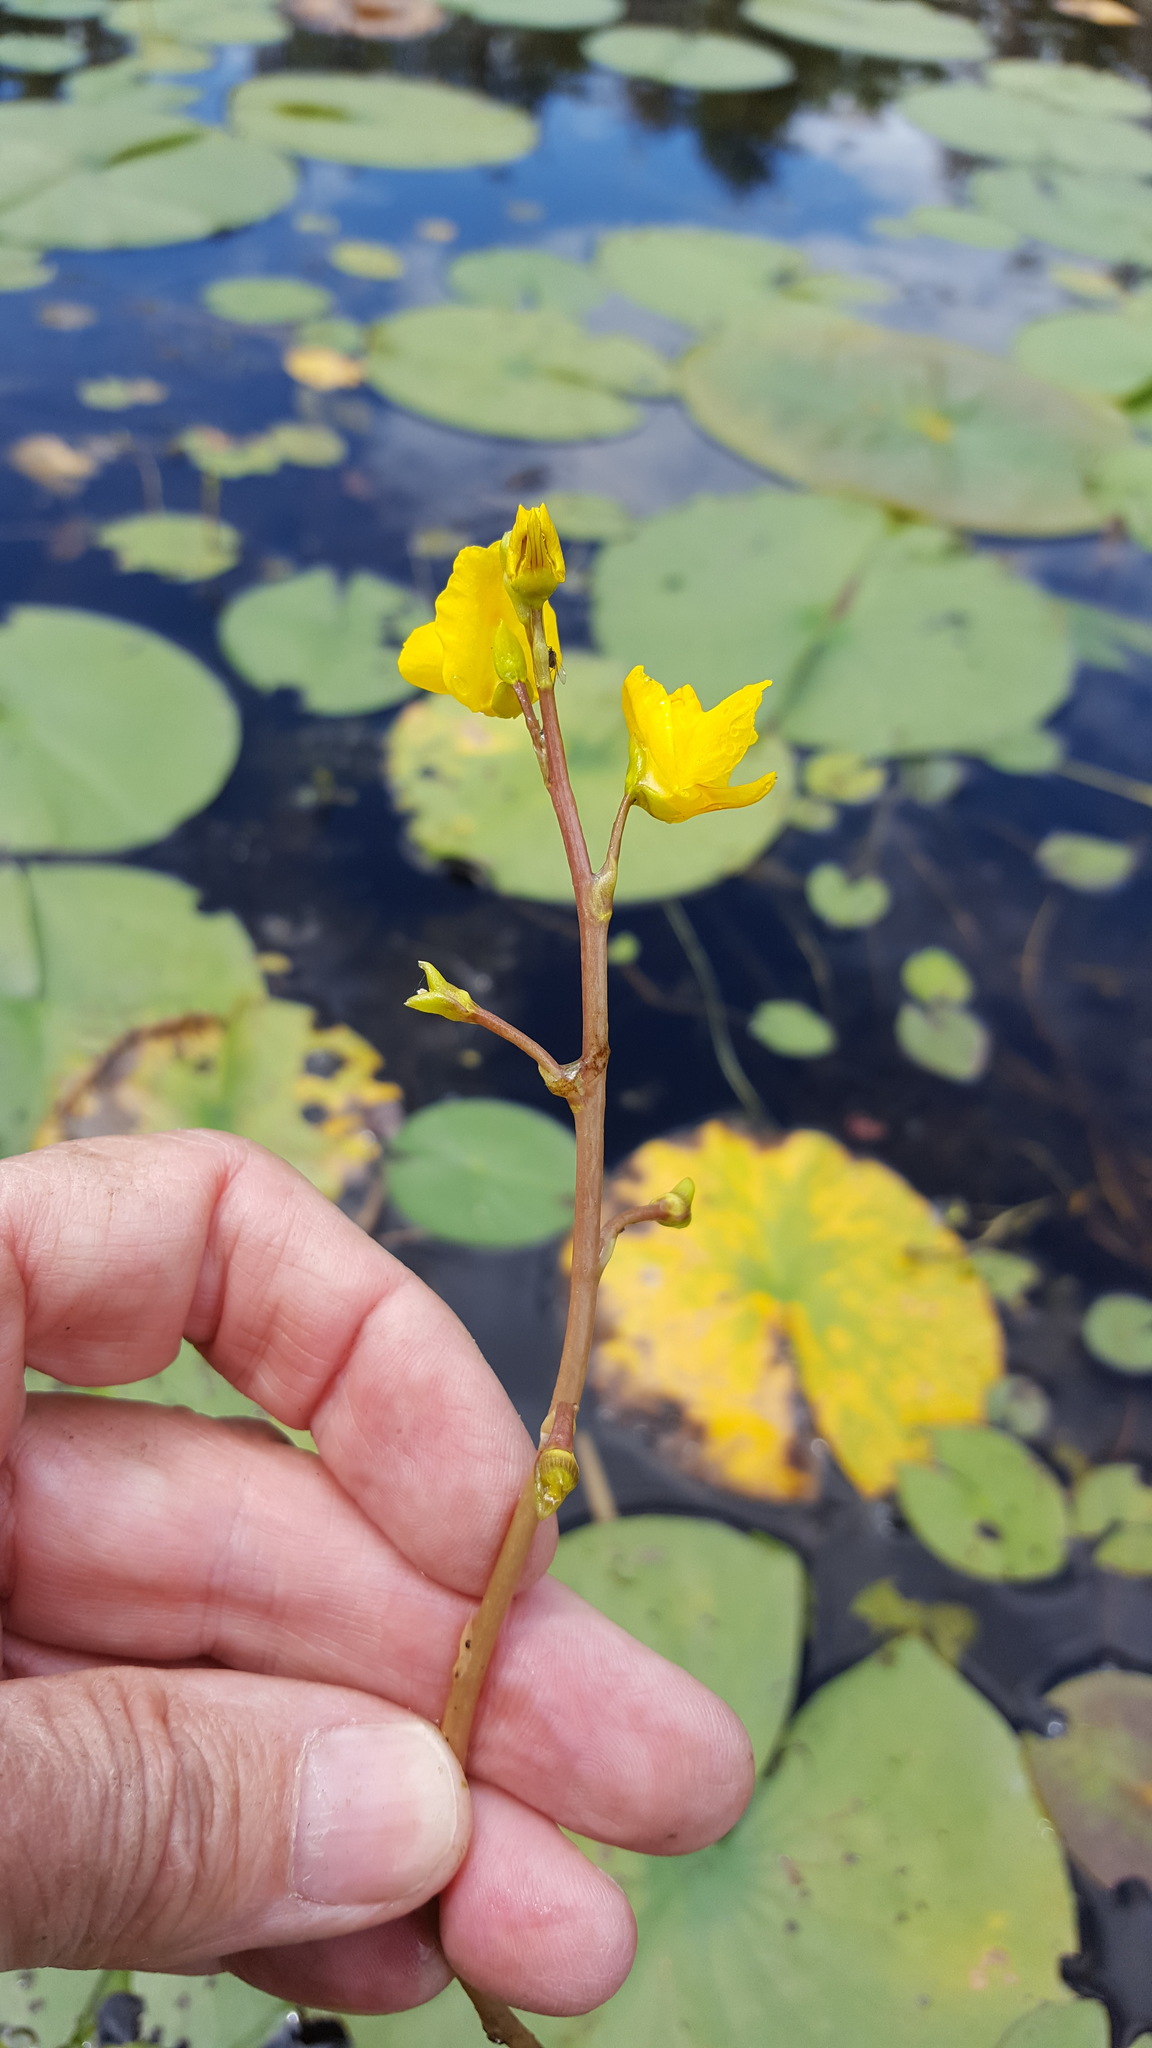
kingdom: Plantae
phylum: Tracheophyta
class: Magnoliopsida
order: Lamiales
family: Lentibulariaceae
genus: Utricularia
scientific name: Utricularia macrorhiza
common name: Common bladderwort
